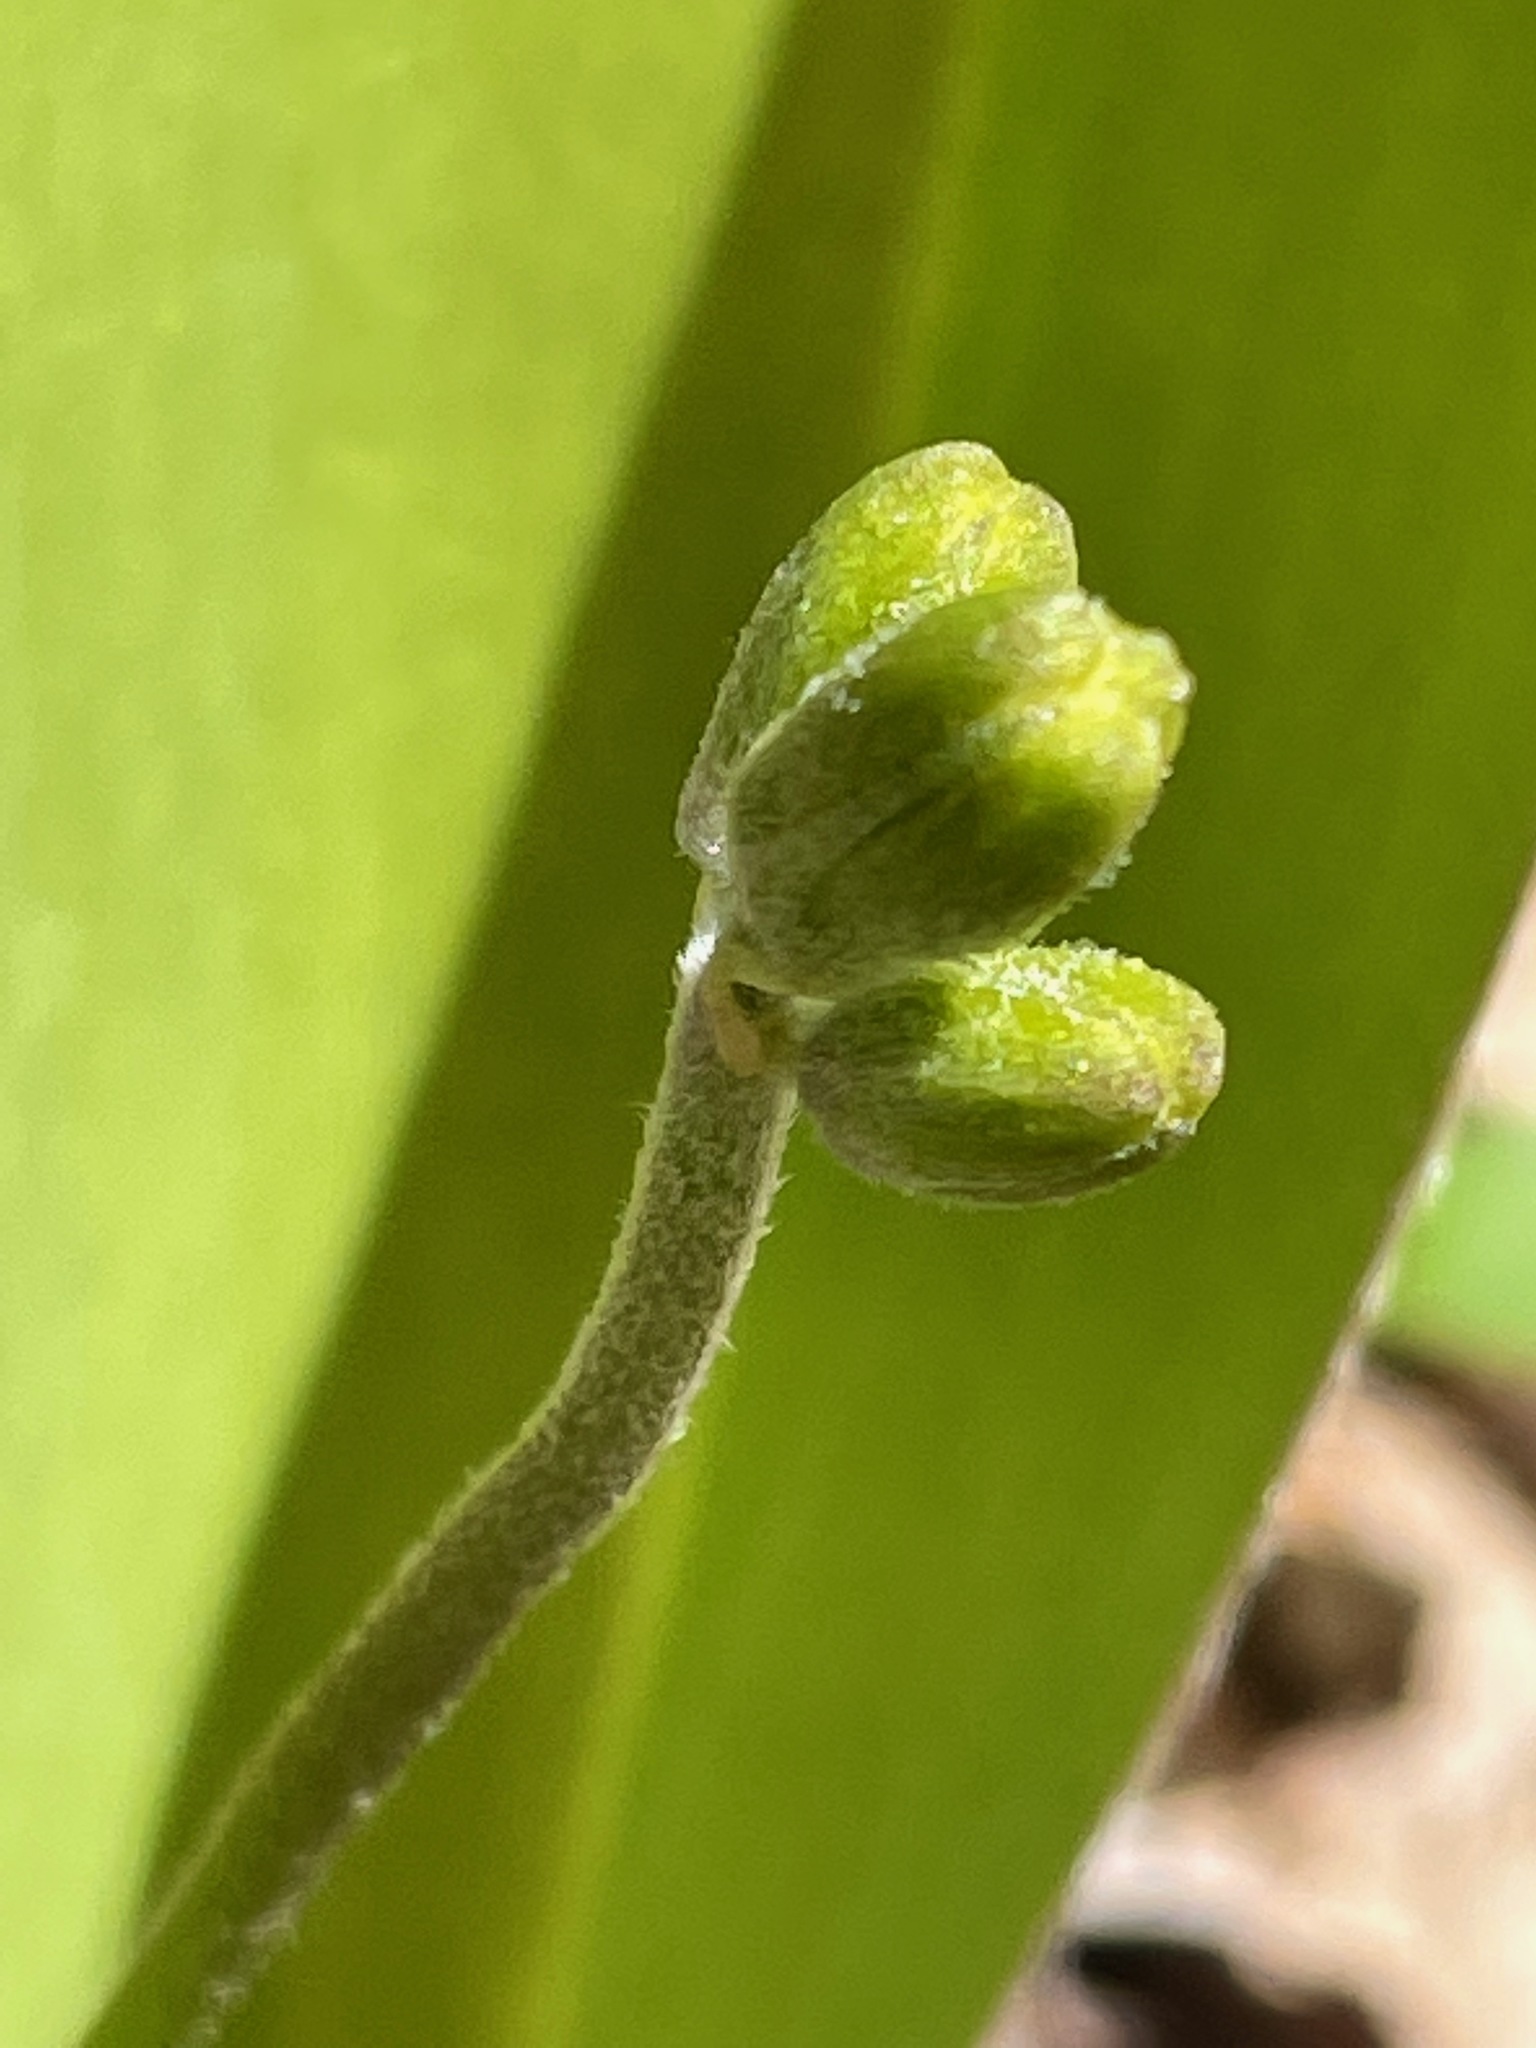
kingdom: Plantae
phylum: Tracheophyta
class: Liliopsida
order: Liliales
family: Liliaceae
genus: Clintonia
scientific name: Clintonia borealis
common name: Yellow clintonia
